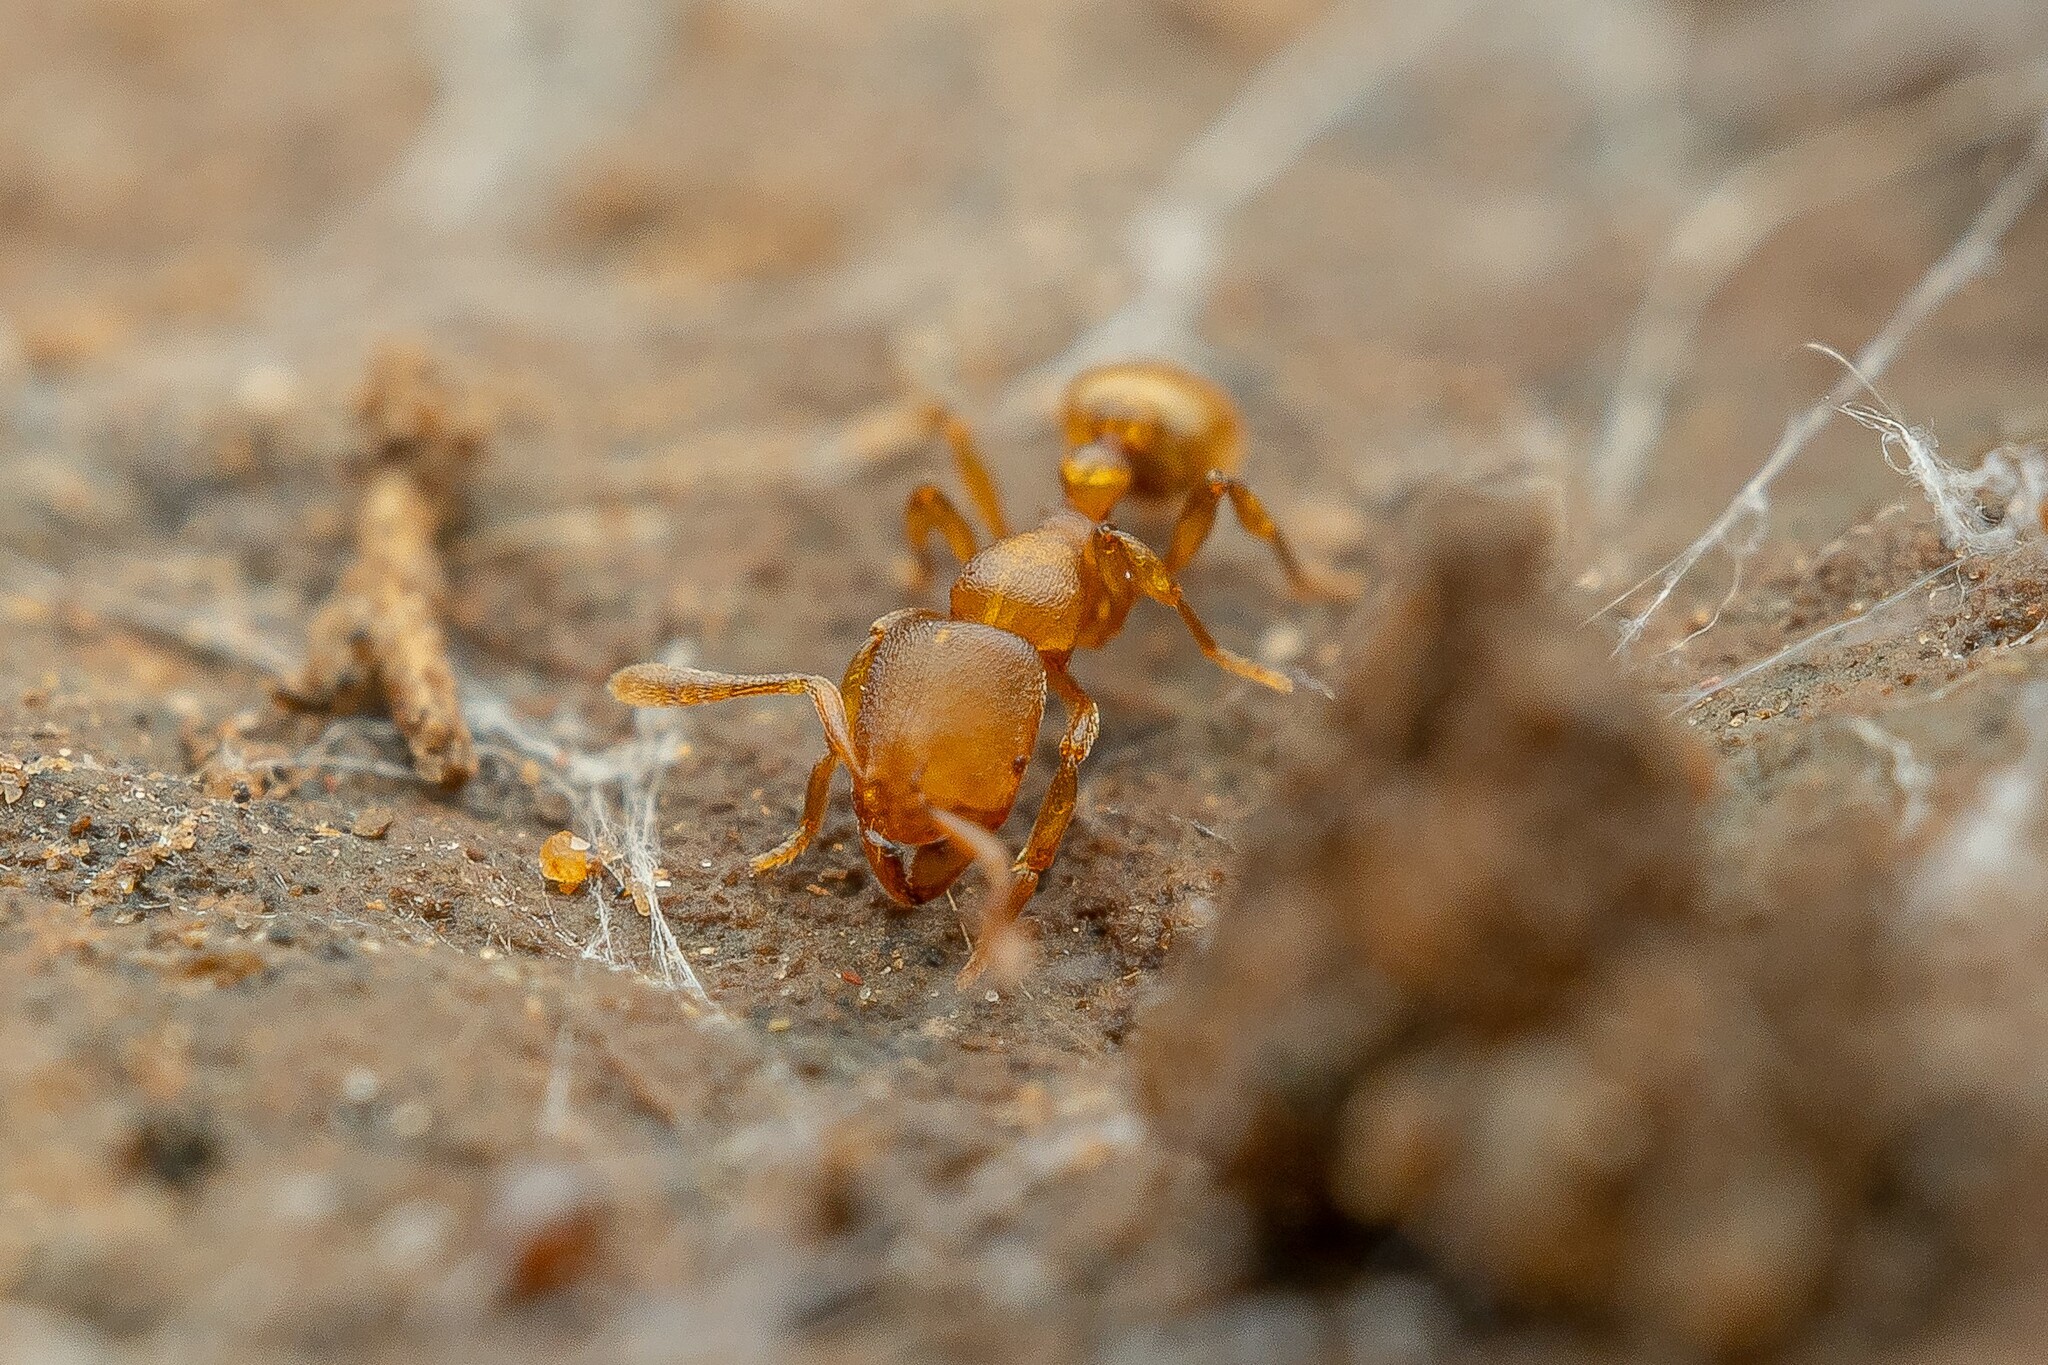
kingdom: Animalia
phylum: Arthropoda
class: Insecta
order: Hymenoptera
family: Formicidae
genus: Rogeria
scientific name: Rogeria foreli
